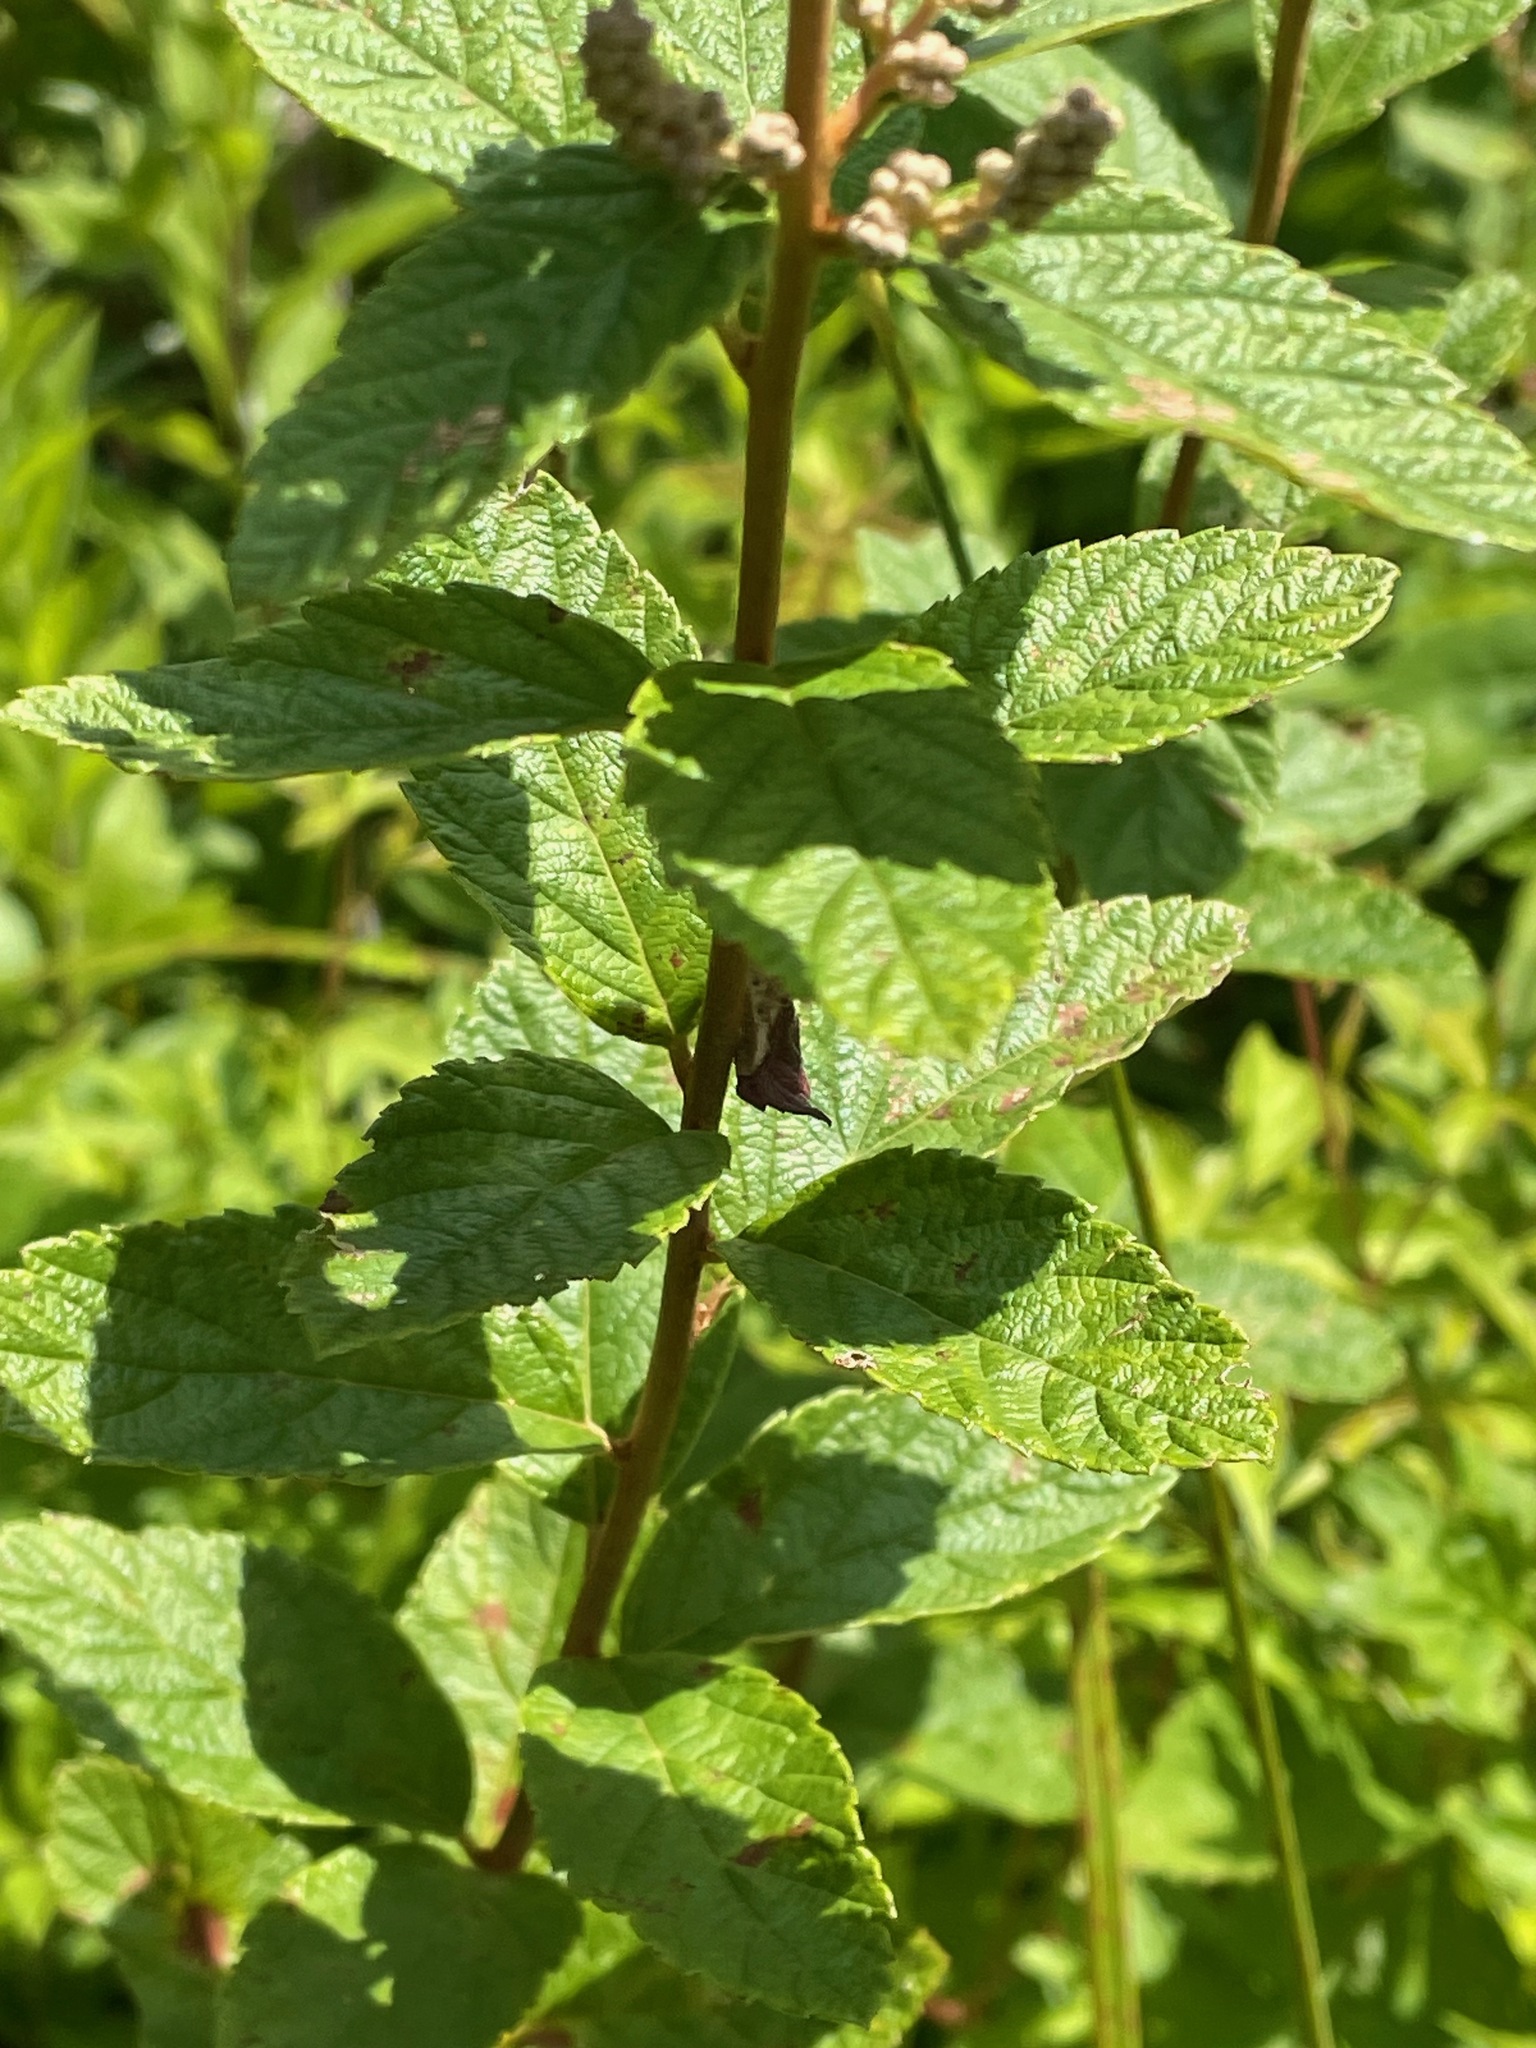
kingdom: Plantae
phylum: Tracheophyta
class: Magnoliopsida
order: Rosales
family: Rosaceae
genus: Spiraea
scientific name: Spiraea tomentosa
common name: Hardhack
